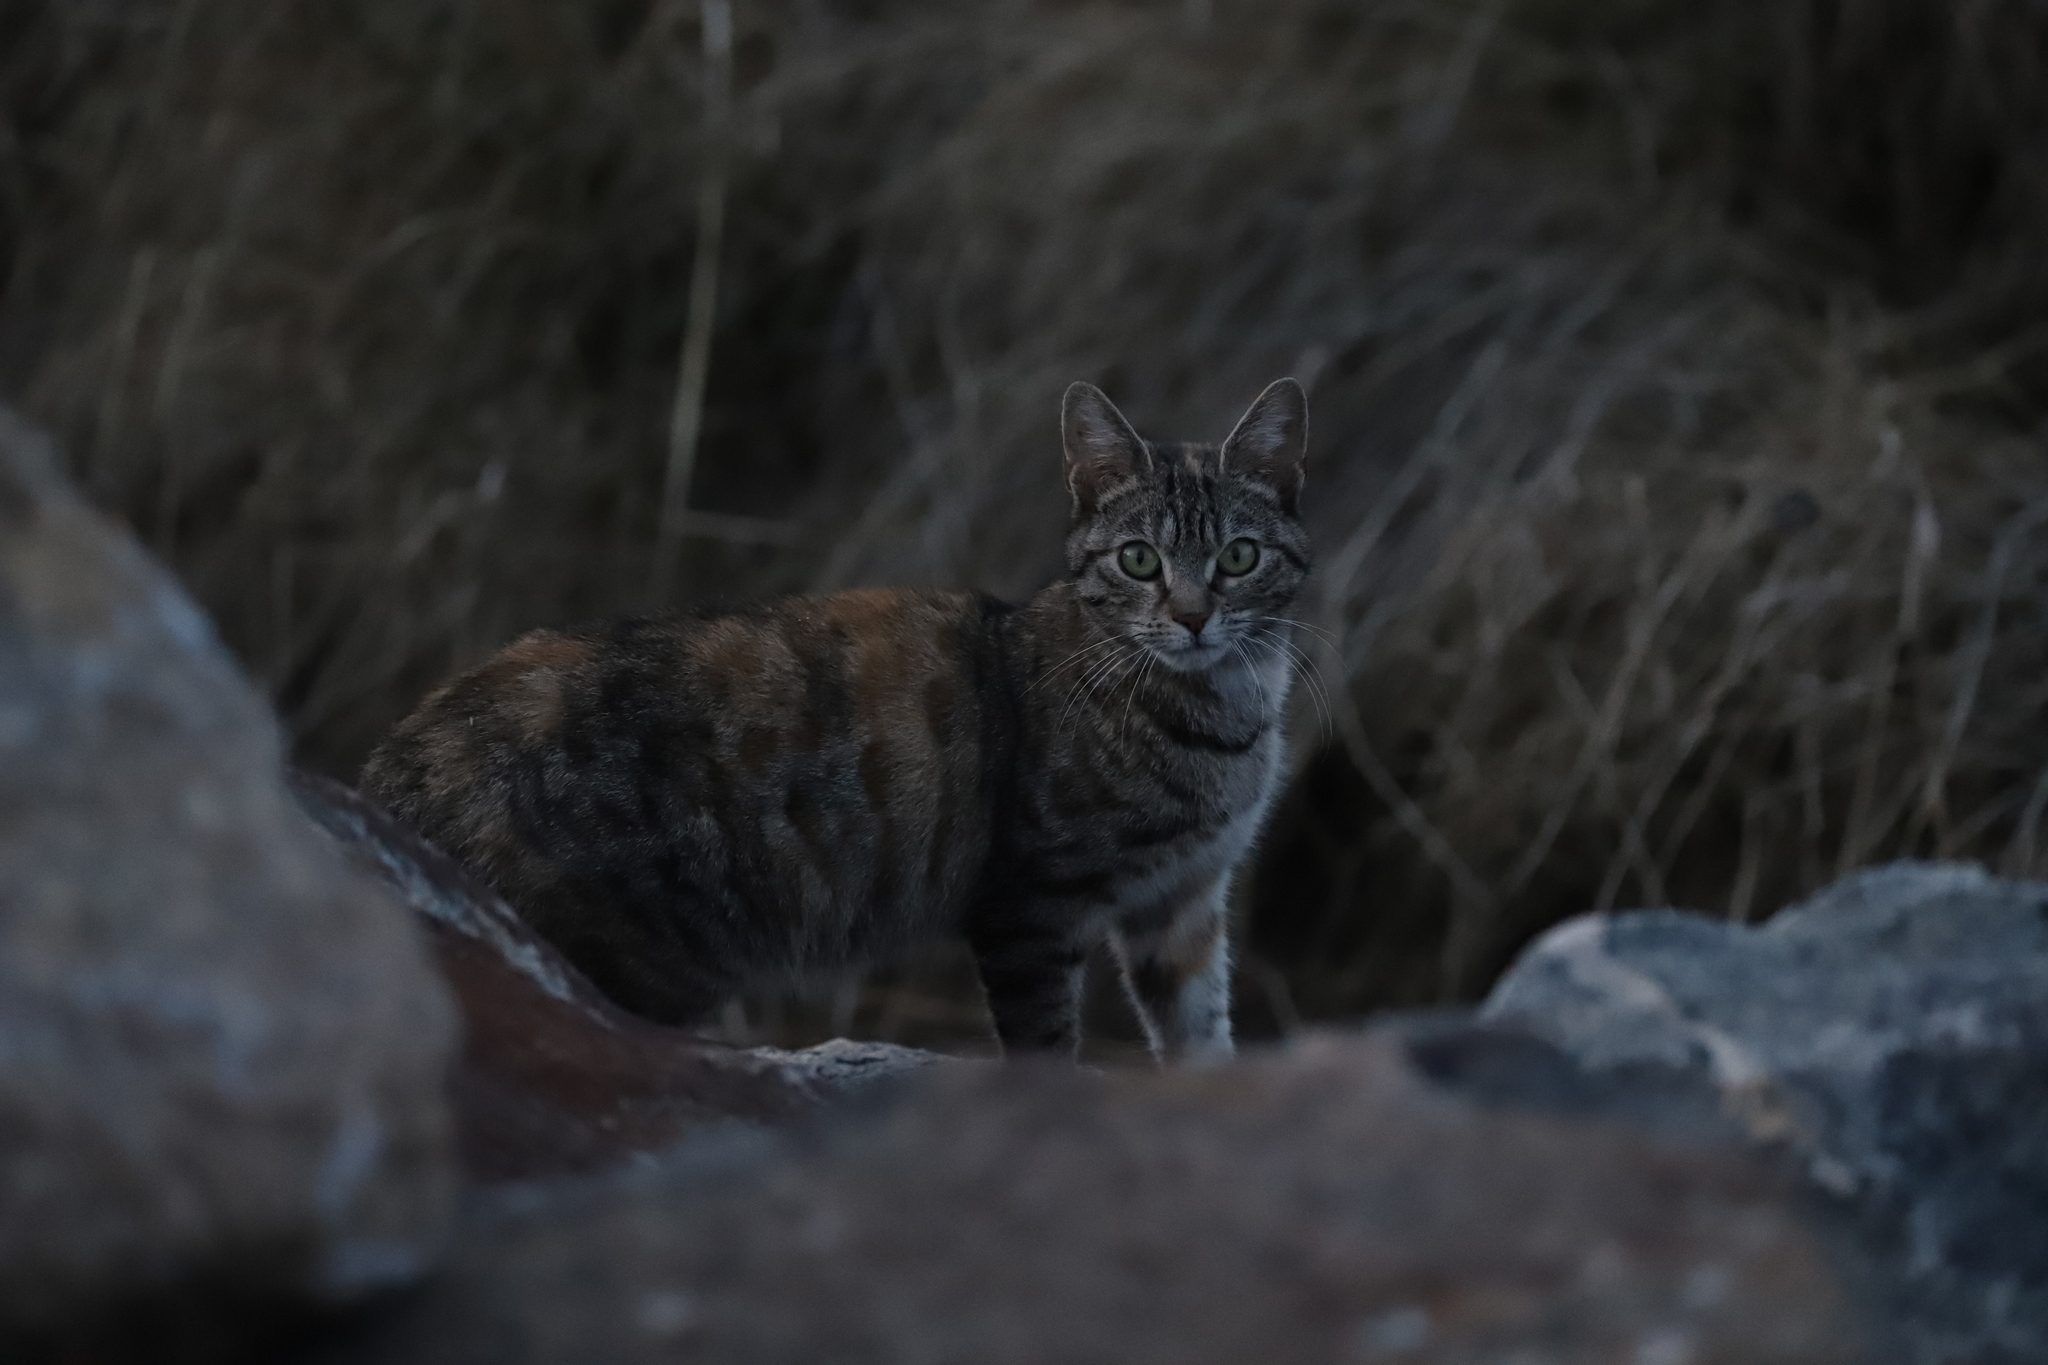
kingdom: Animalia
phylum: Chordata
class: Mammalia
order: Carnivora
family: Felidae
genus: Felis
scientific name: Felis catus
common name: Domestic cat
